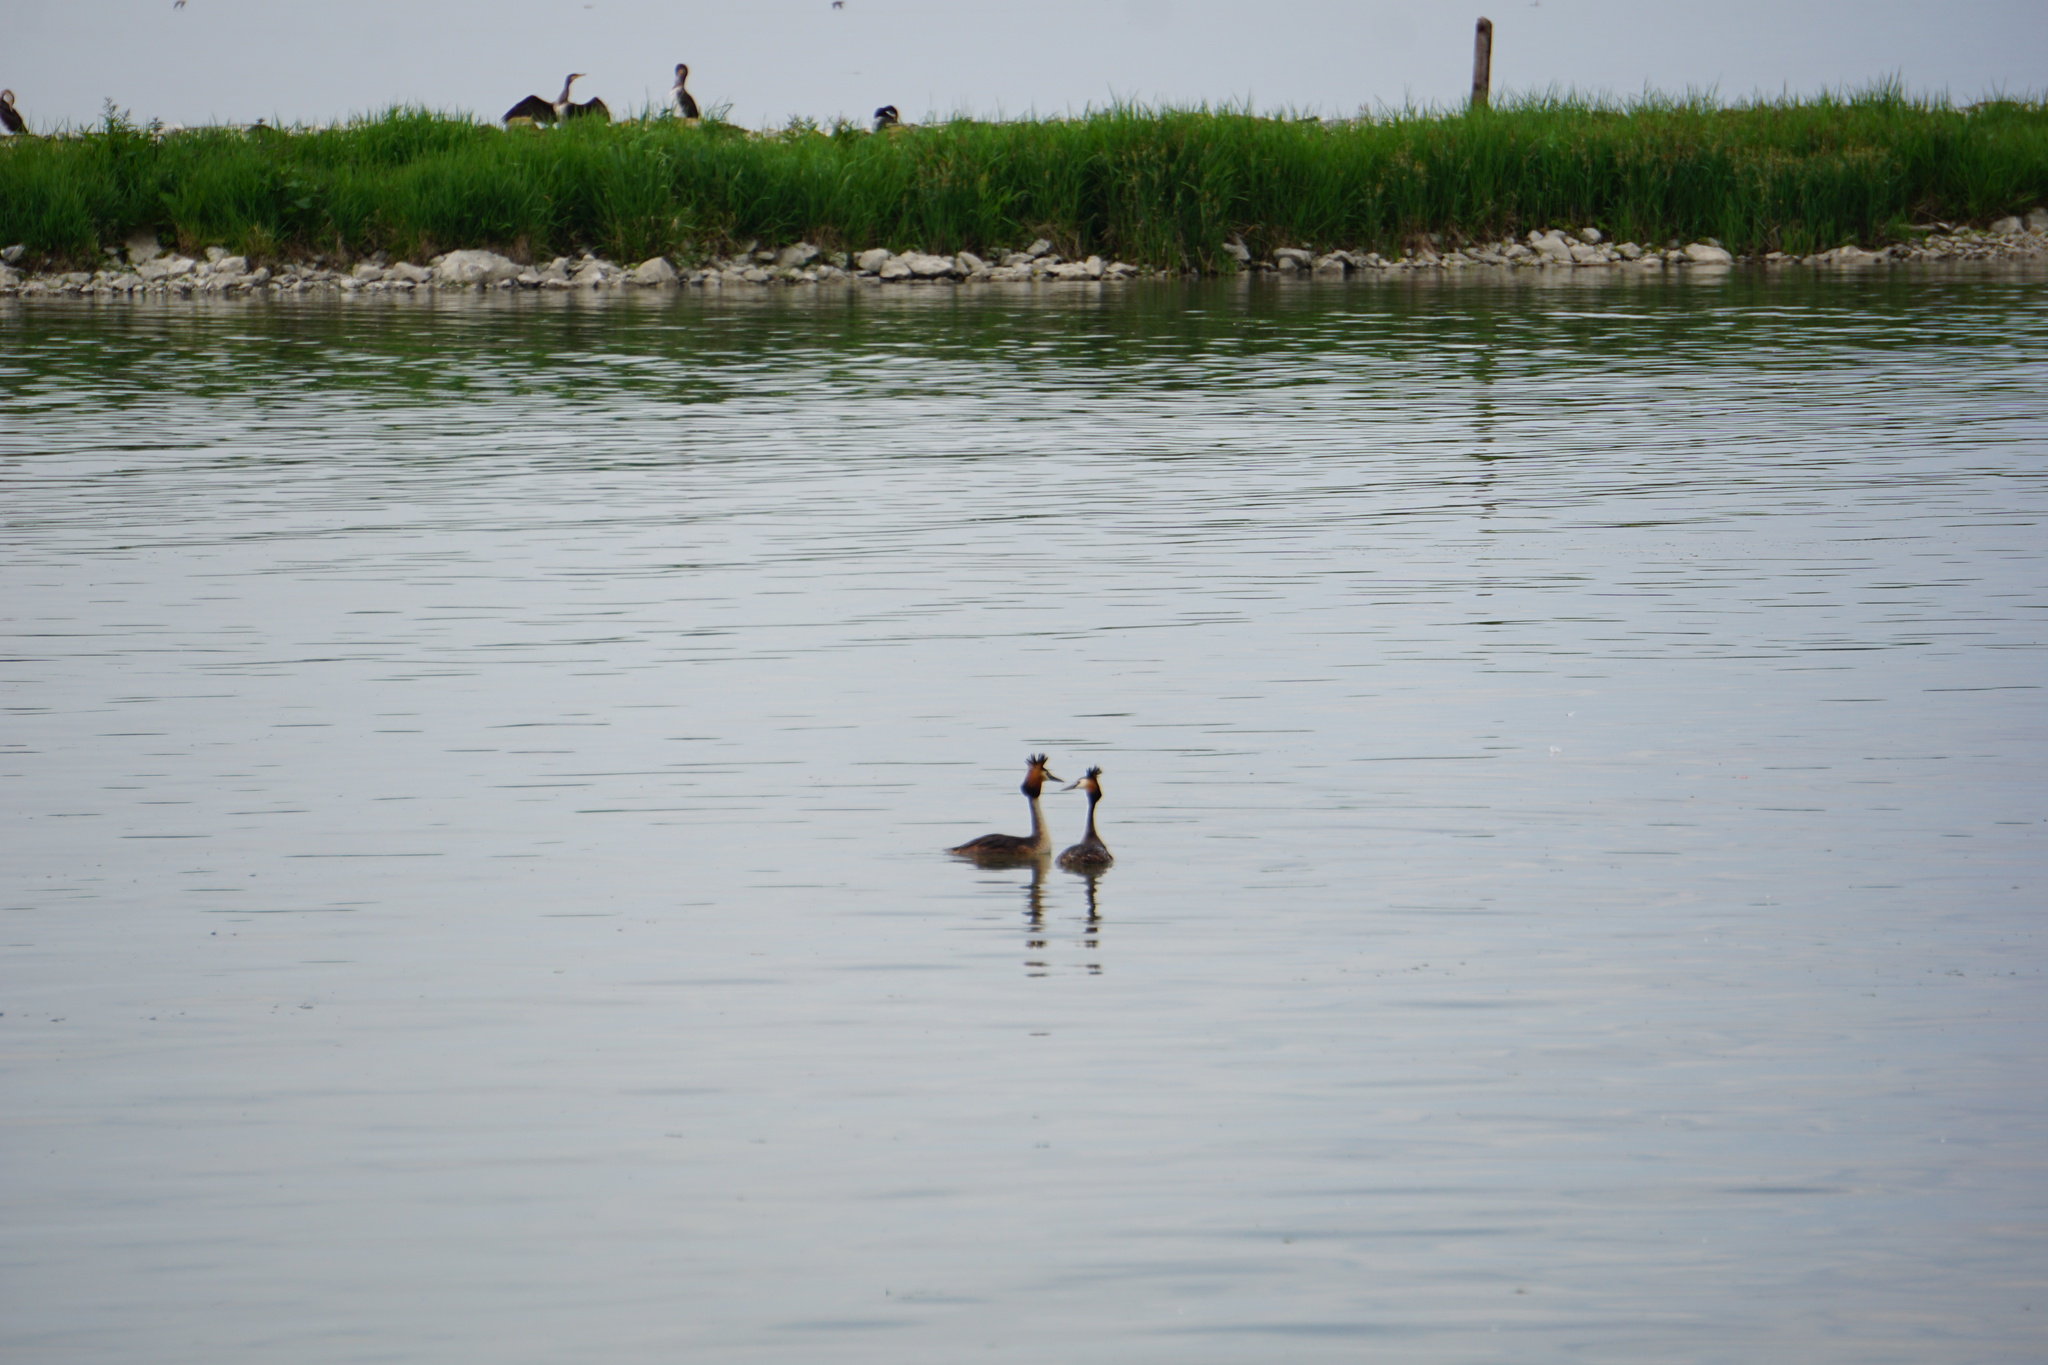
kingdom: Animalia
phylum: Chordata
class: Aves
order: Podicipediformes
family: Podicipedidae
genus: Podiceps
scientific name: Podiceps cristatus
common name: Great crested grebe
